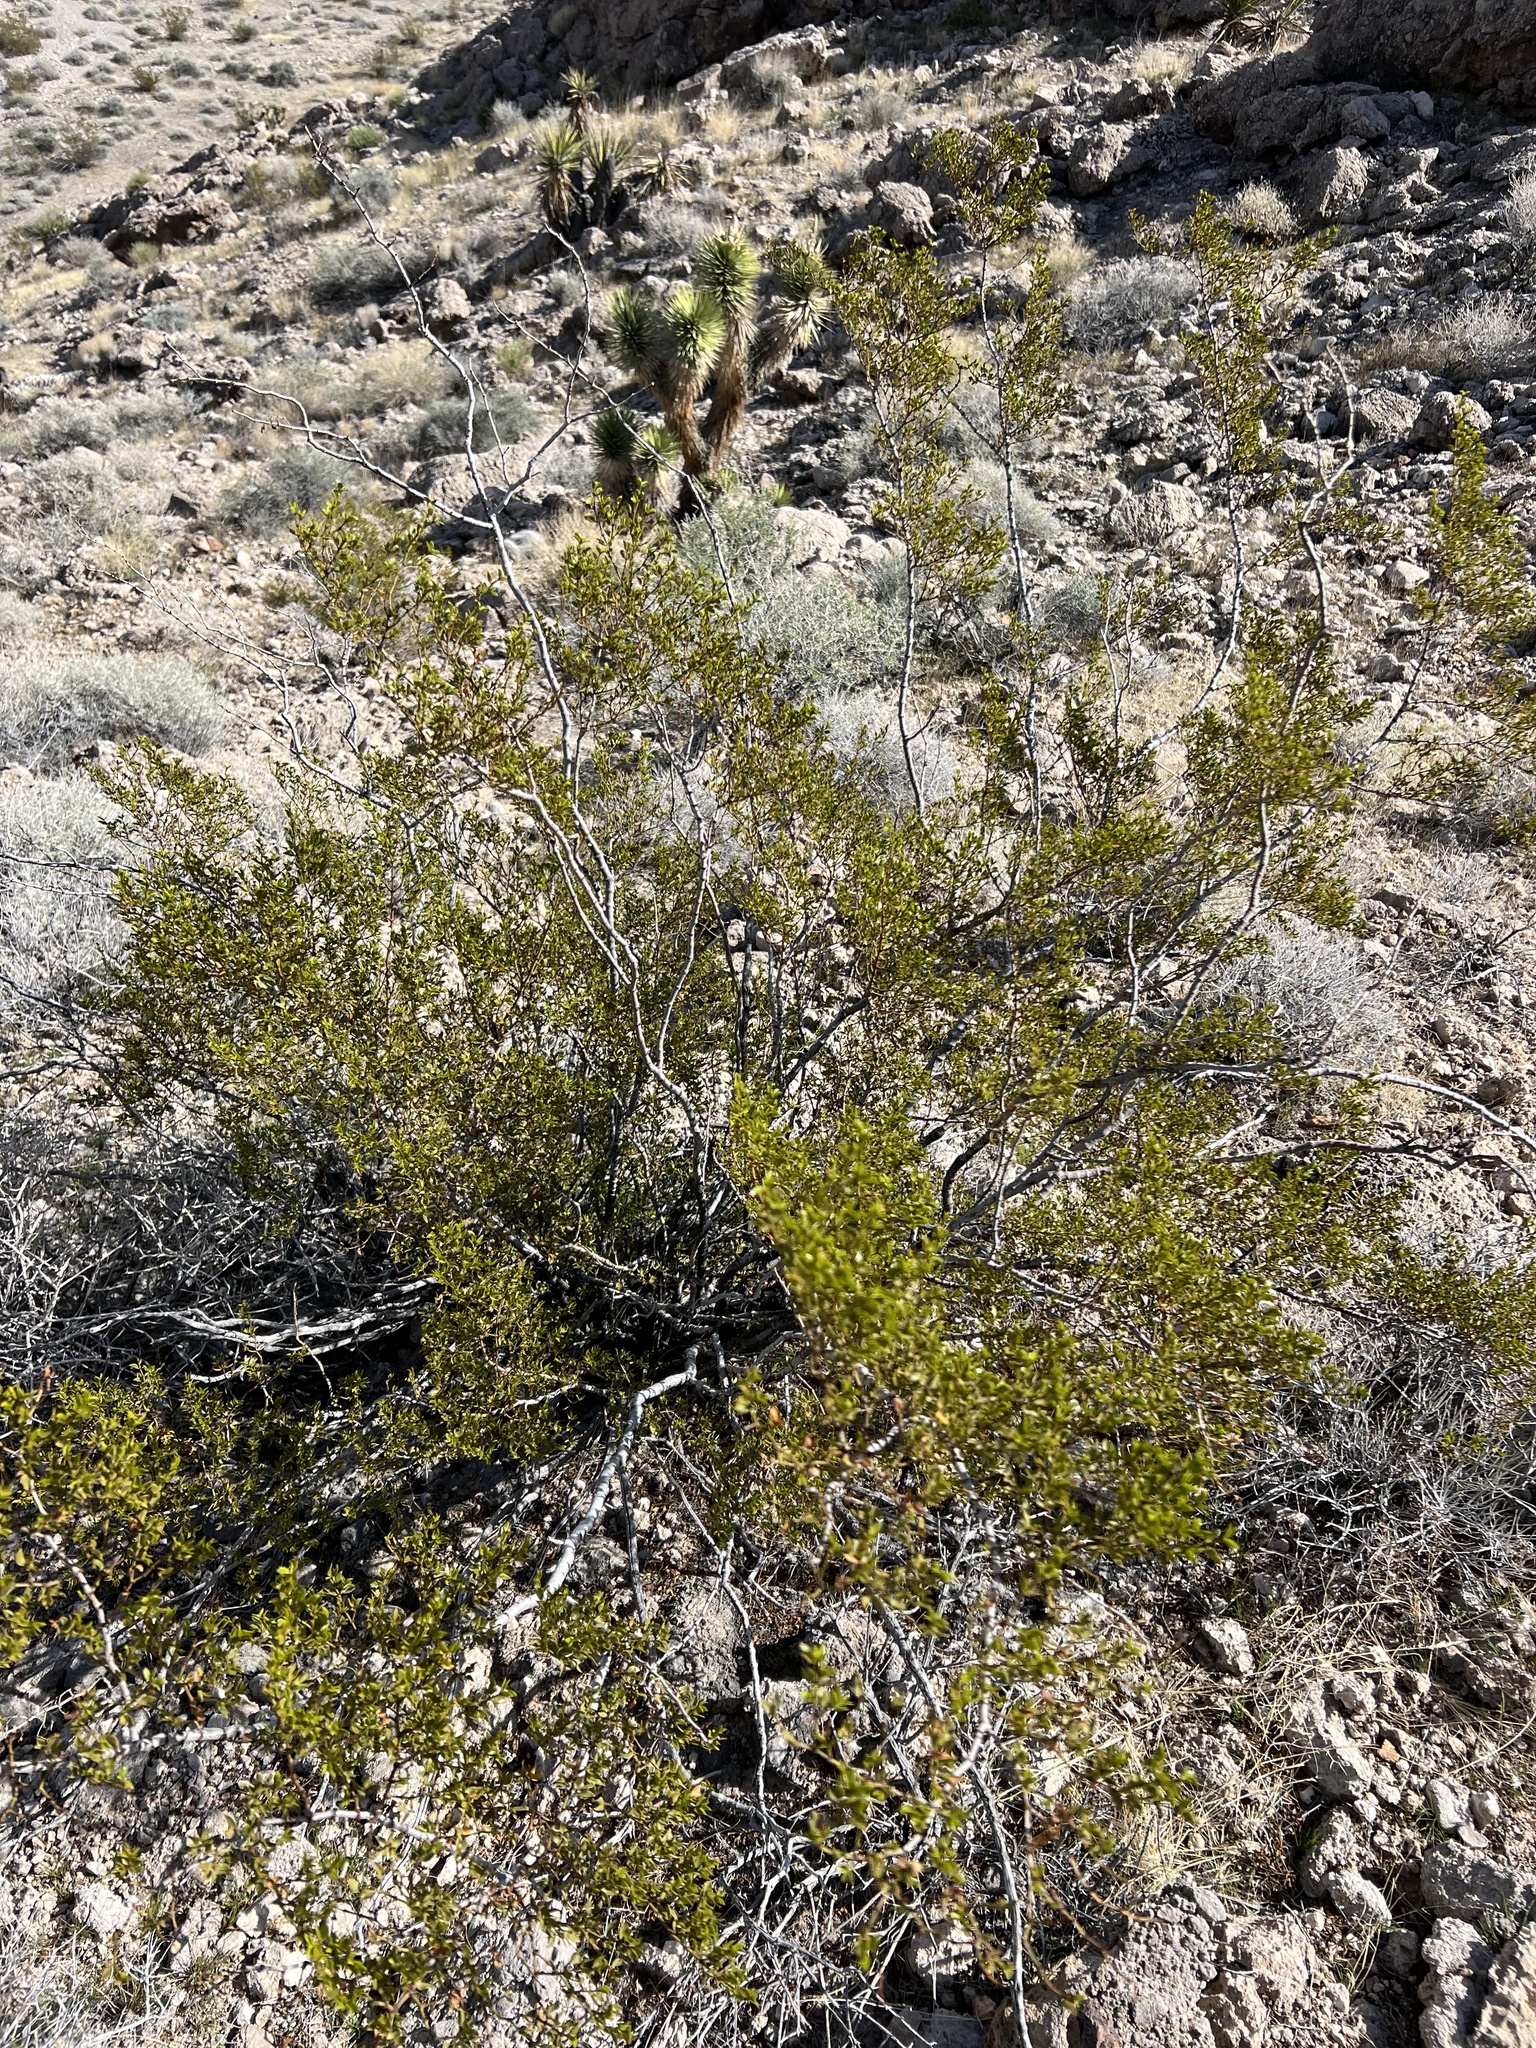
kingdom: Plantae
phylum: Tracheophyta
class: Magnoliopsida
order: Zygophyllales
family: Zygophyllaceae
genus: Larrea
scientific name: Larrea tridentata
